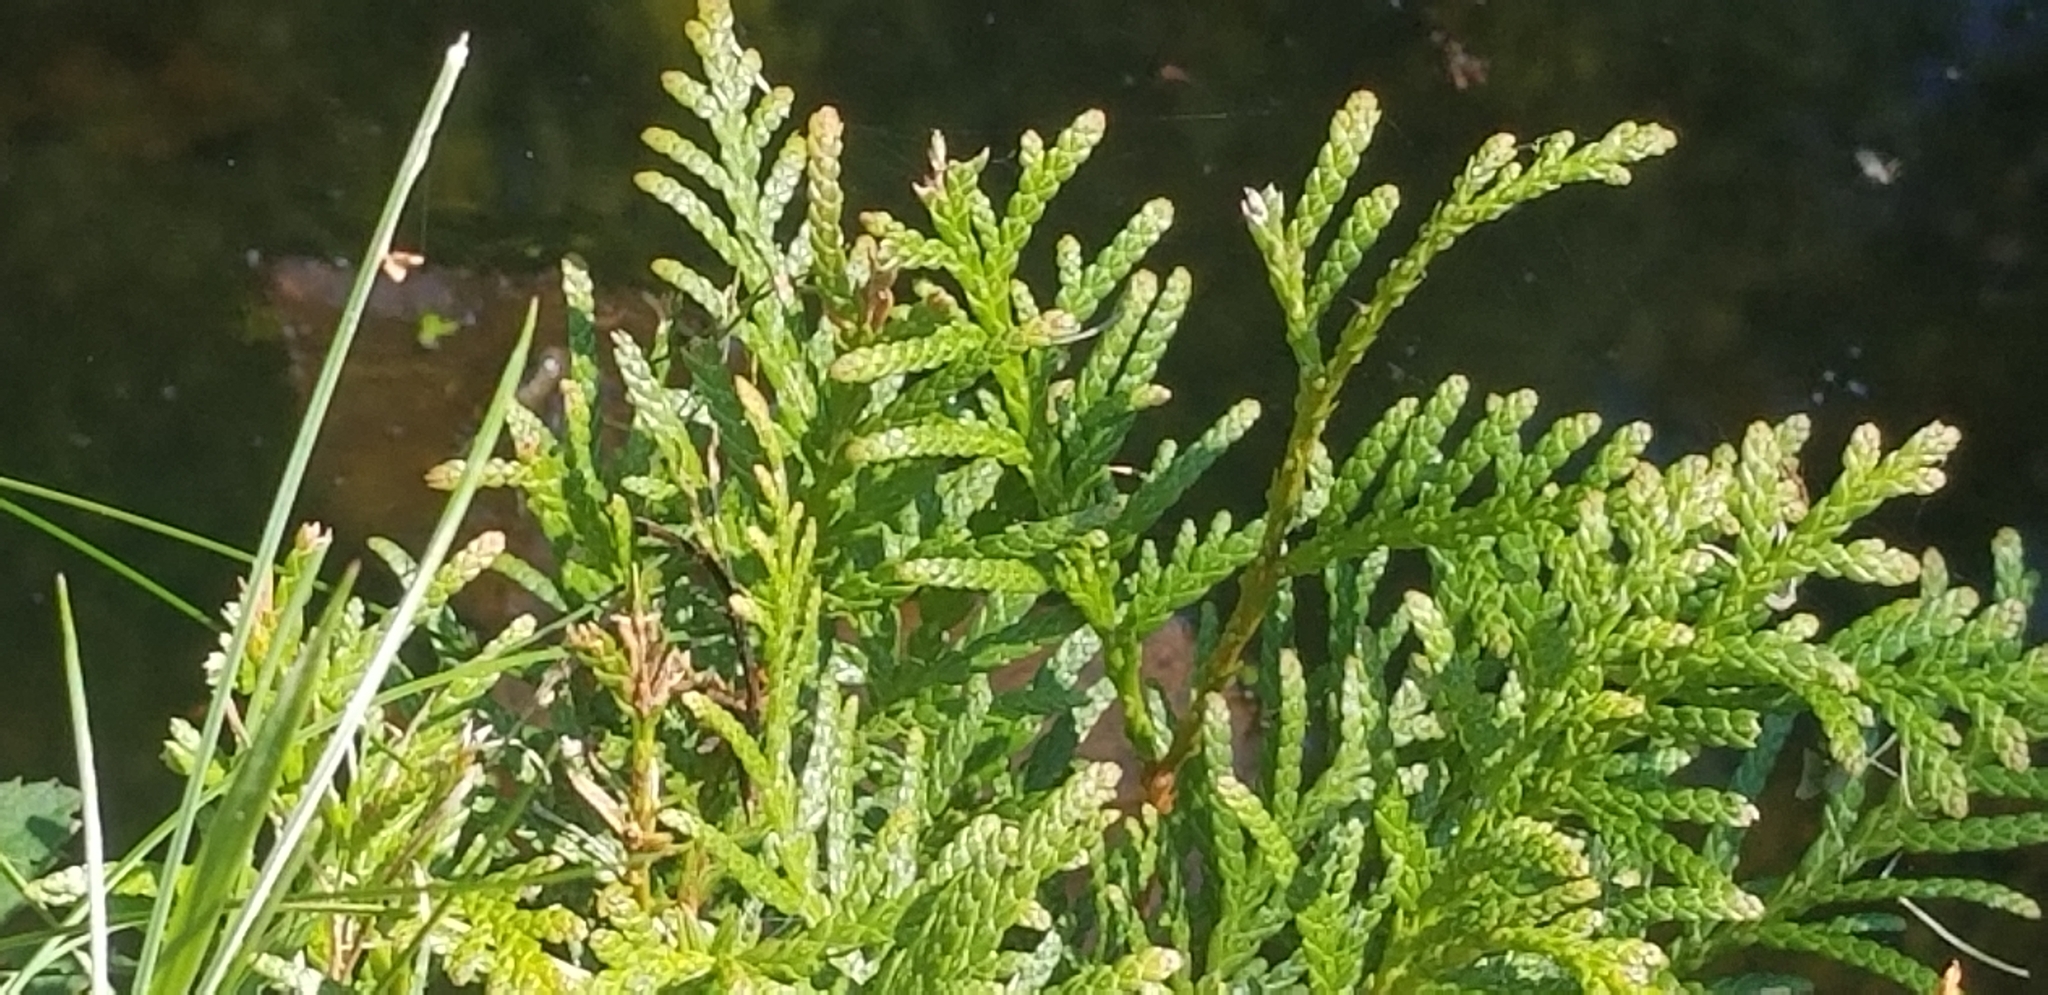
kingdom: Plantae
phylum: Tracheophyta
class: Pinopsida
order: Pinales
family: Cupressaceae
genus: Thuja
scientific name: Thuja occidentalis
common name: Northern white-cedar
